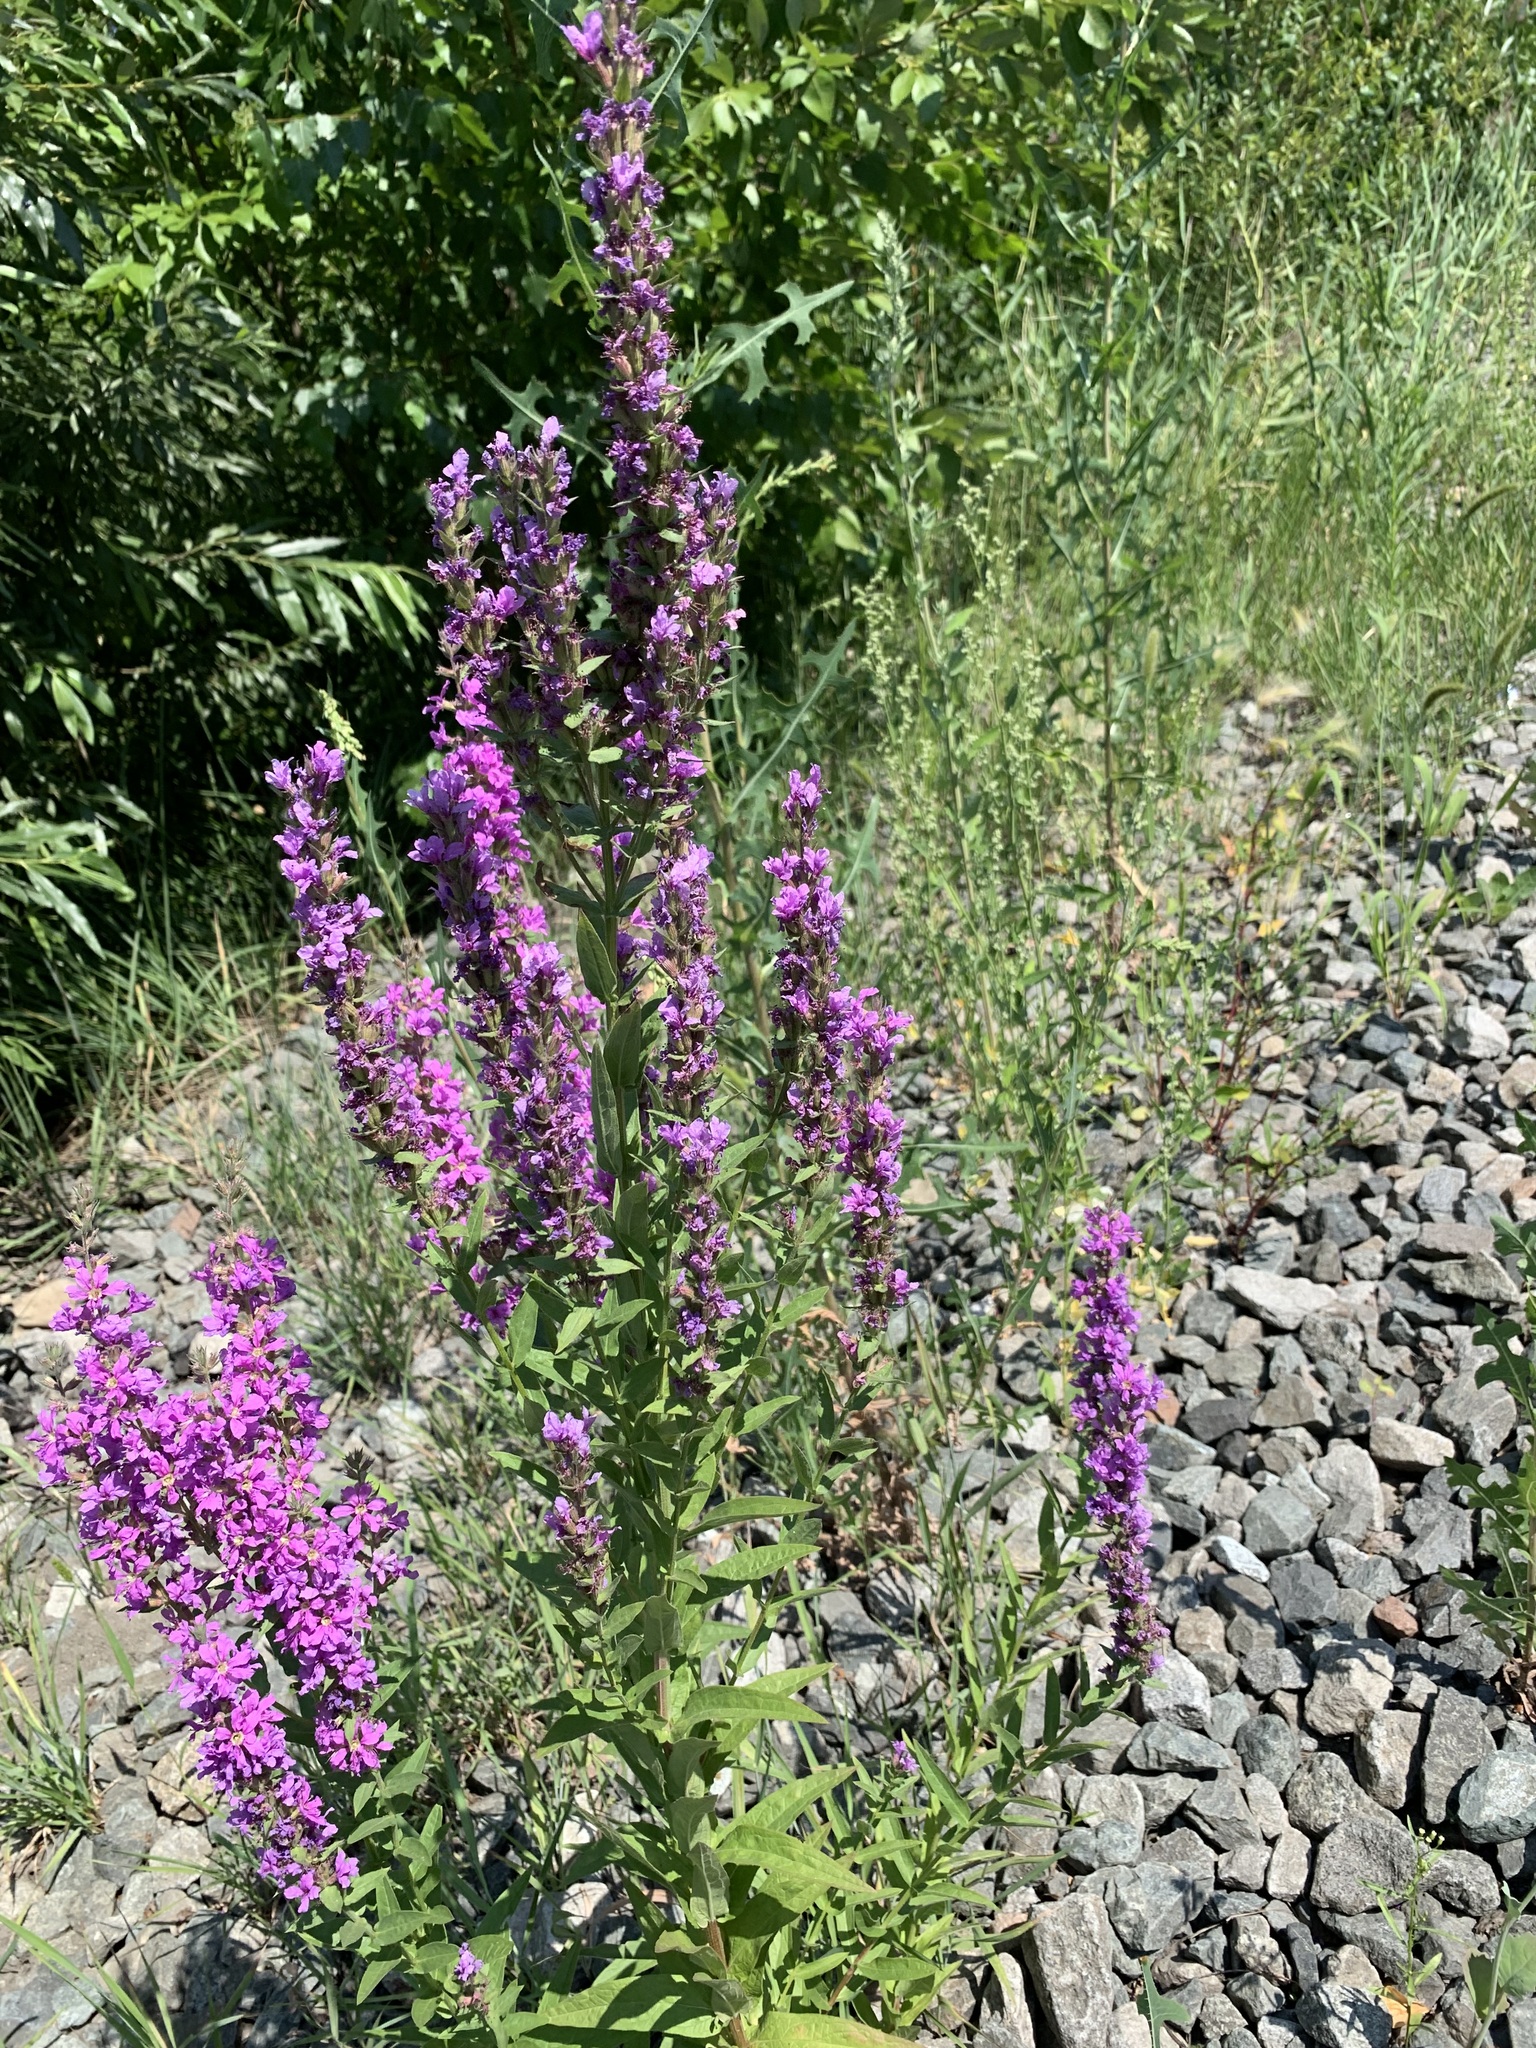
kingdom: Plantae
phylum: Tracheophyta
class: Magnoliopsida
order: Myrtales
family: Lythraceae
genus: Lythrum
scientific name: Lythrum salicaria
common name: Purple loosestrife
